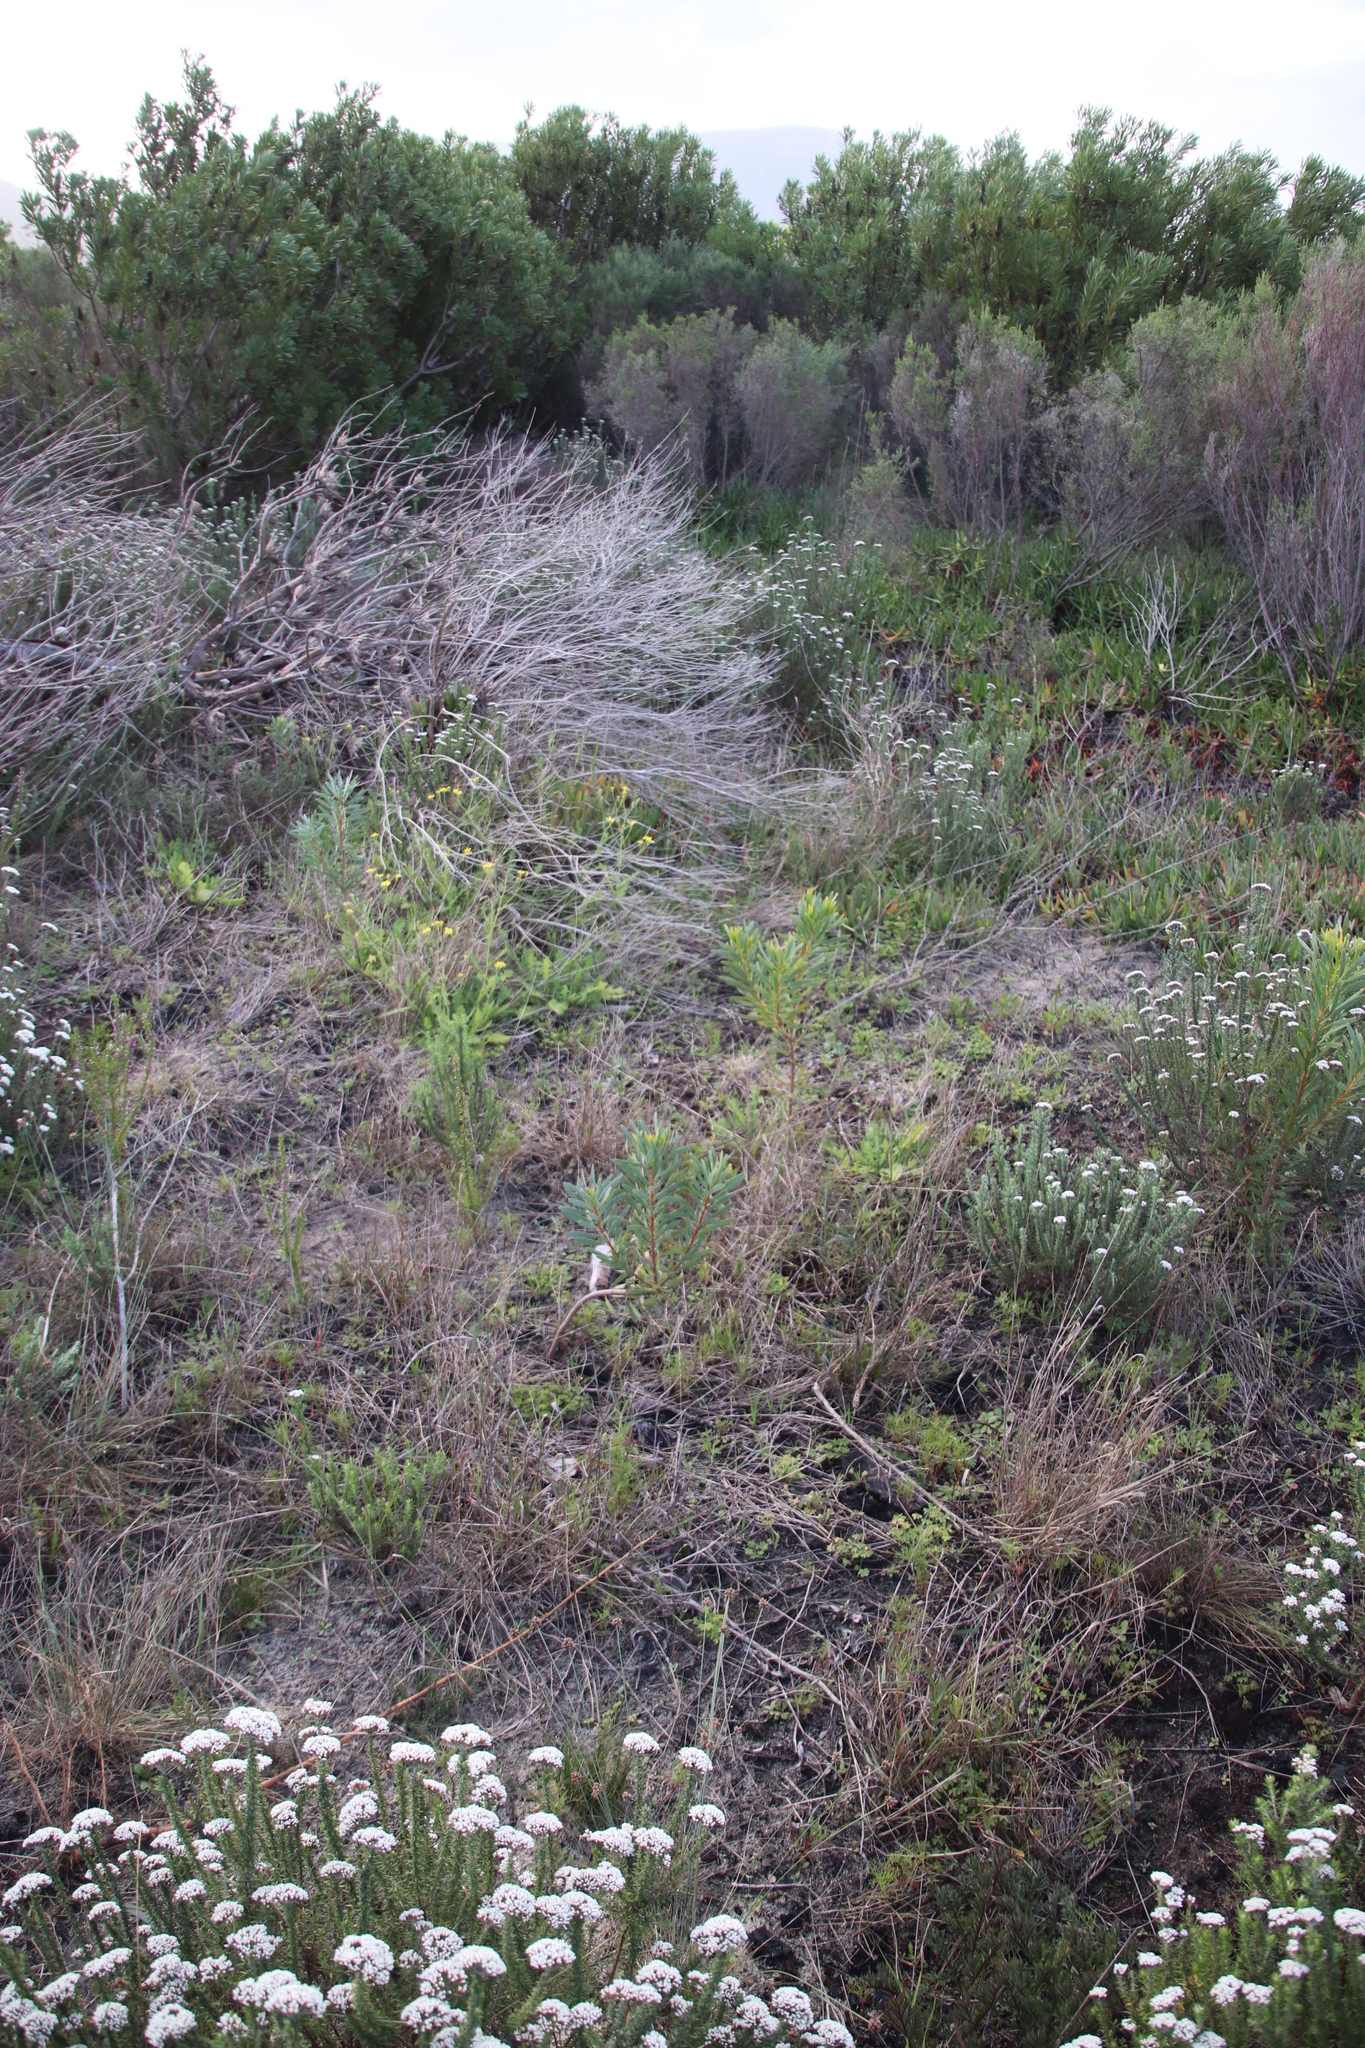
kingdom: Plantae
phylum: Tracheophyta
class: Magnoliopsida
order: Proteales
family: Proteaceae
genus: Protea
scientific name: Protea repens
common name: Sugarbush
